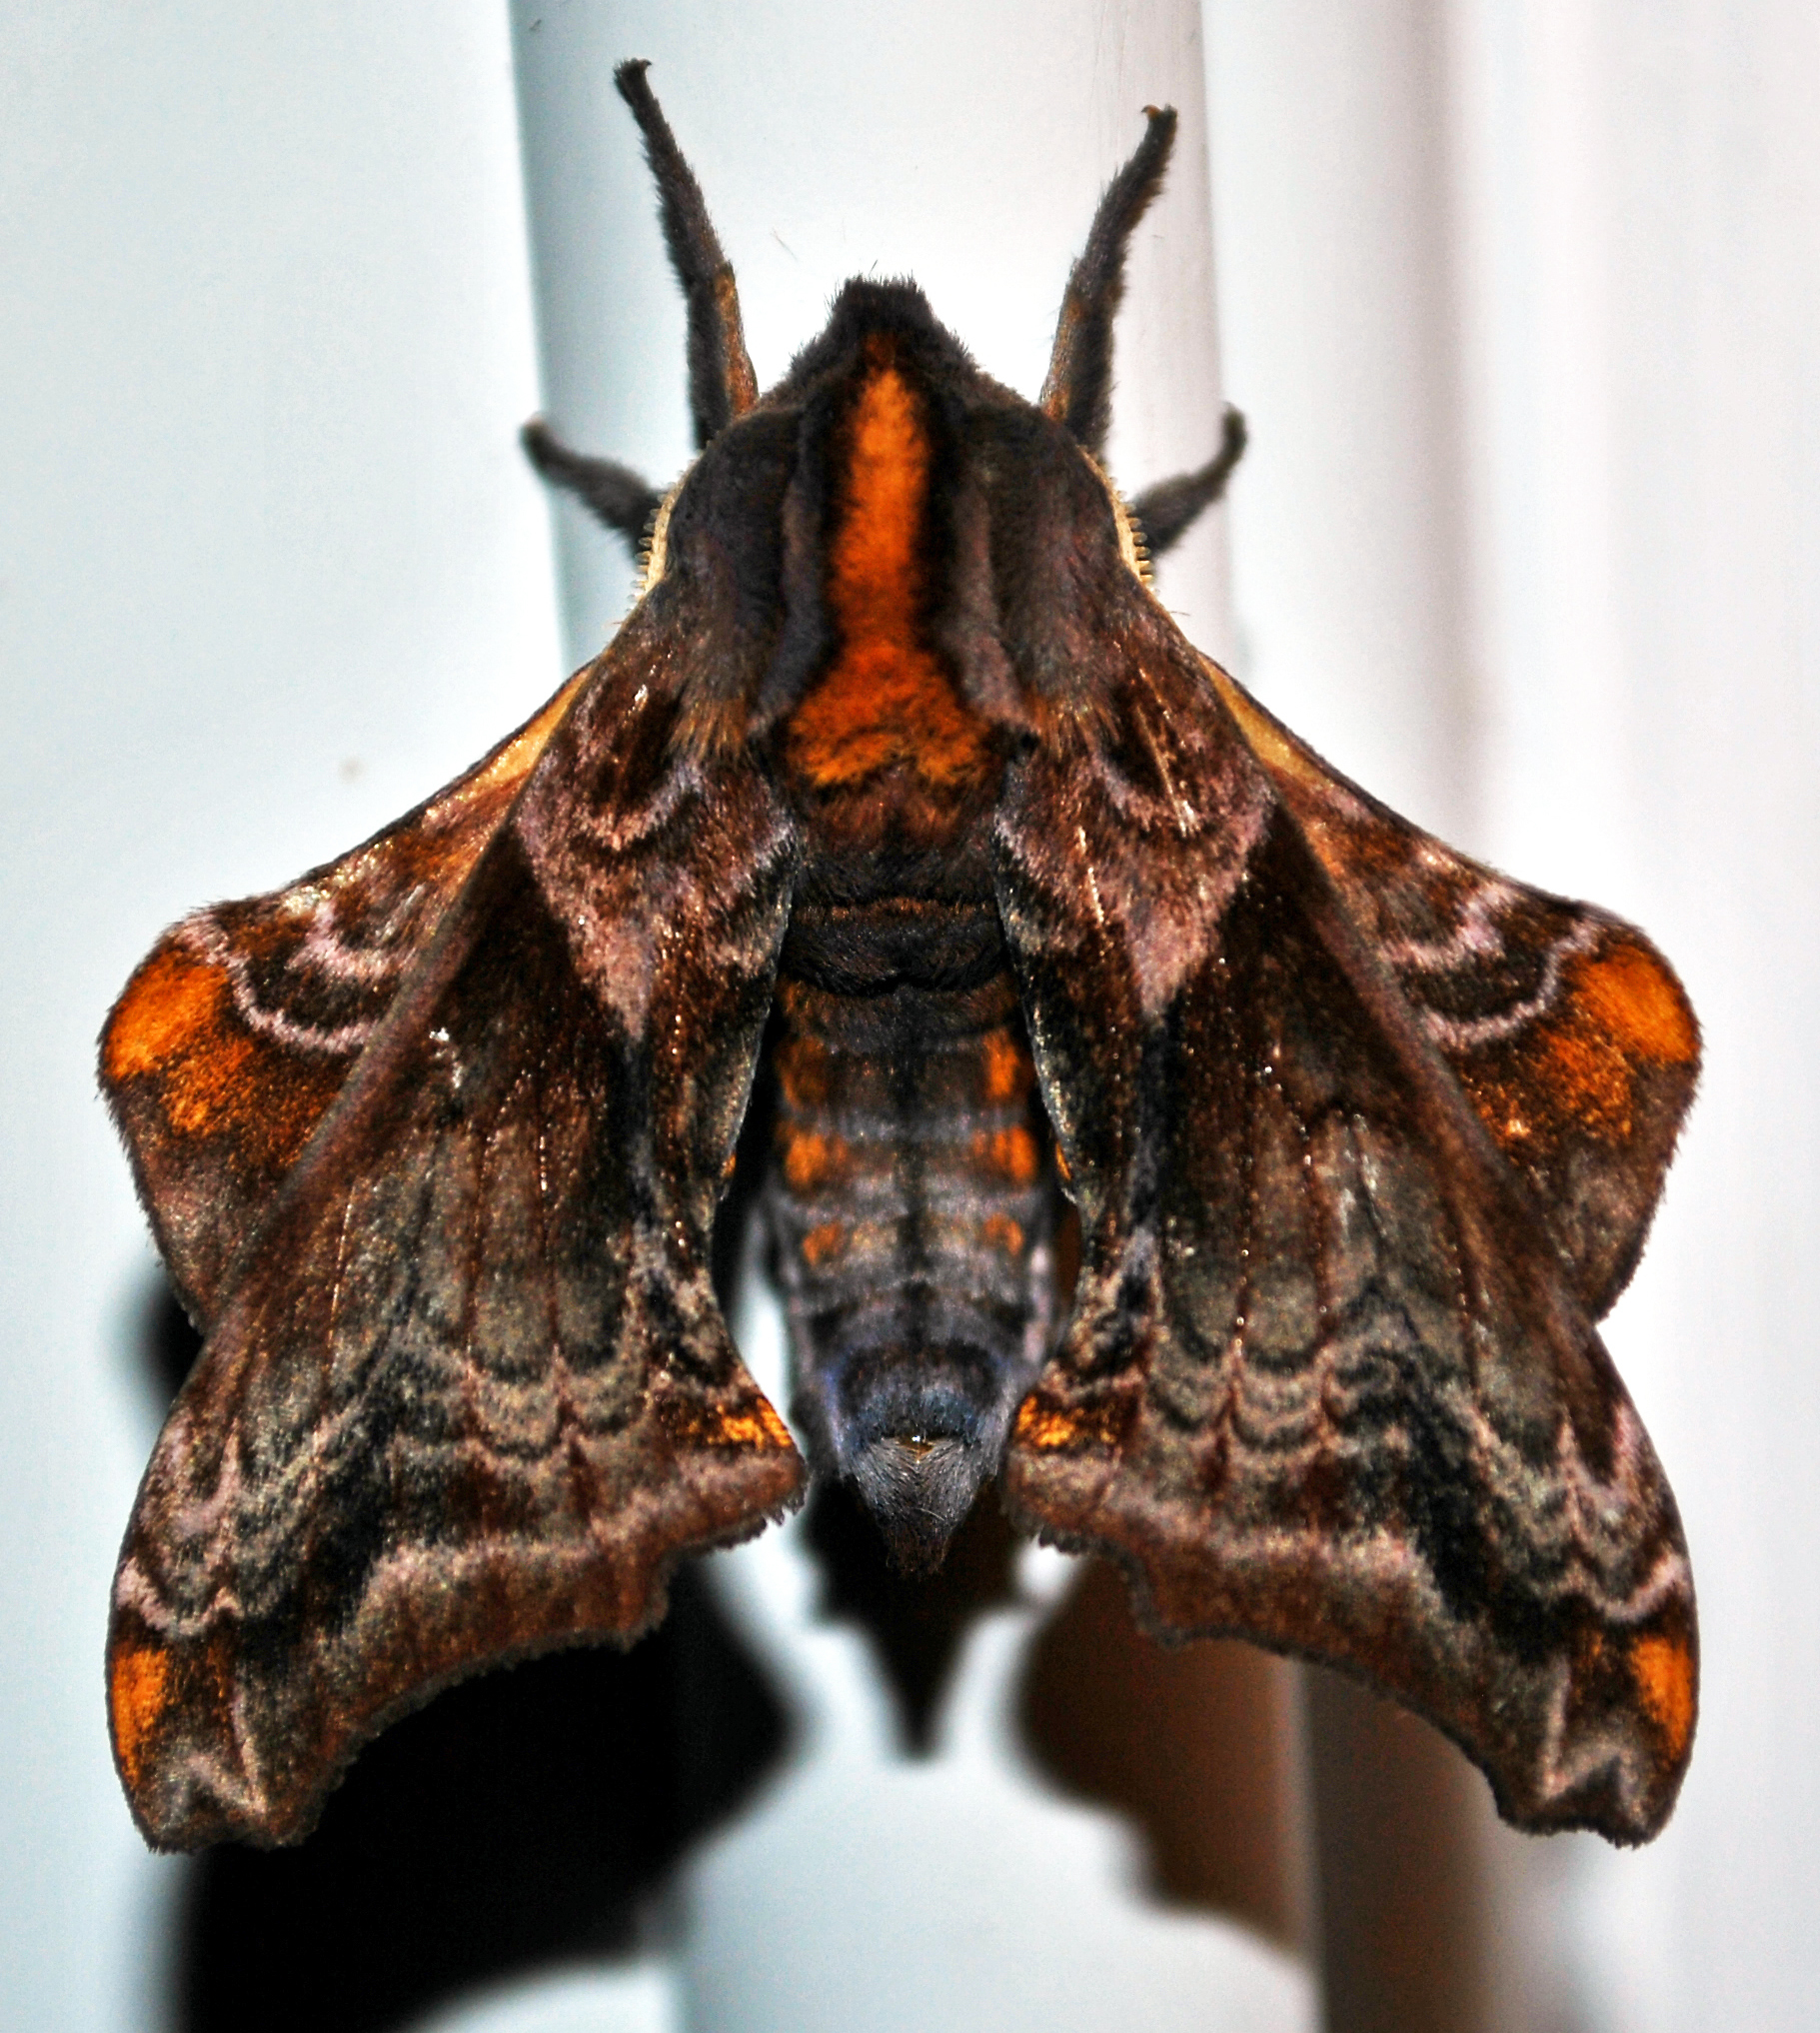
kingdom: Animalia
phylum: Arthropoda
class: Insecta
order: Lepidoptera
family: Sphingidae
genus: Paonias
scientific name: Paonias myops
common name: Small-eyed sphinx
